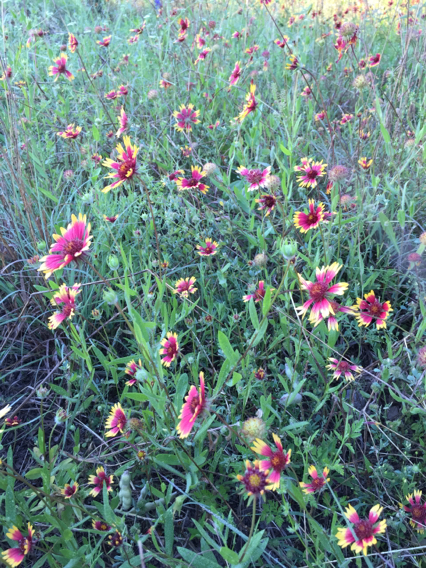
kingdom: Plantae
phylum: Tracheophyta
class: Magnoliopsida
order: Asterales
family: Asteraceae
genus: Gaillardia
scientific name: Gaillardia pulchella
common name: Firewheel
